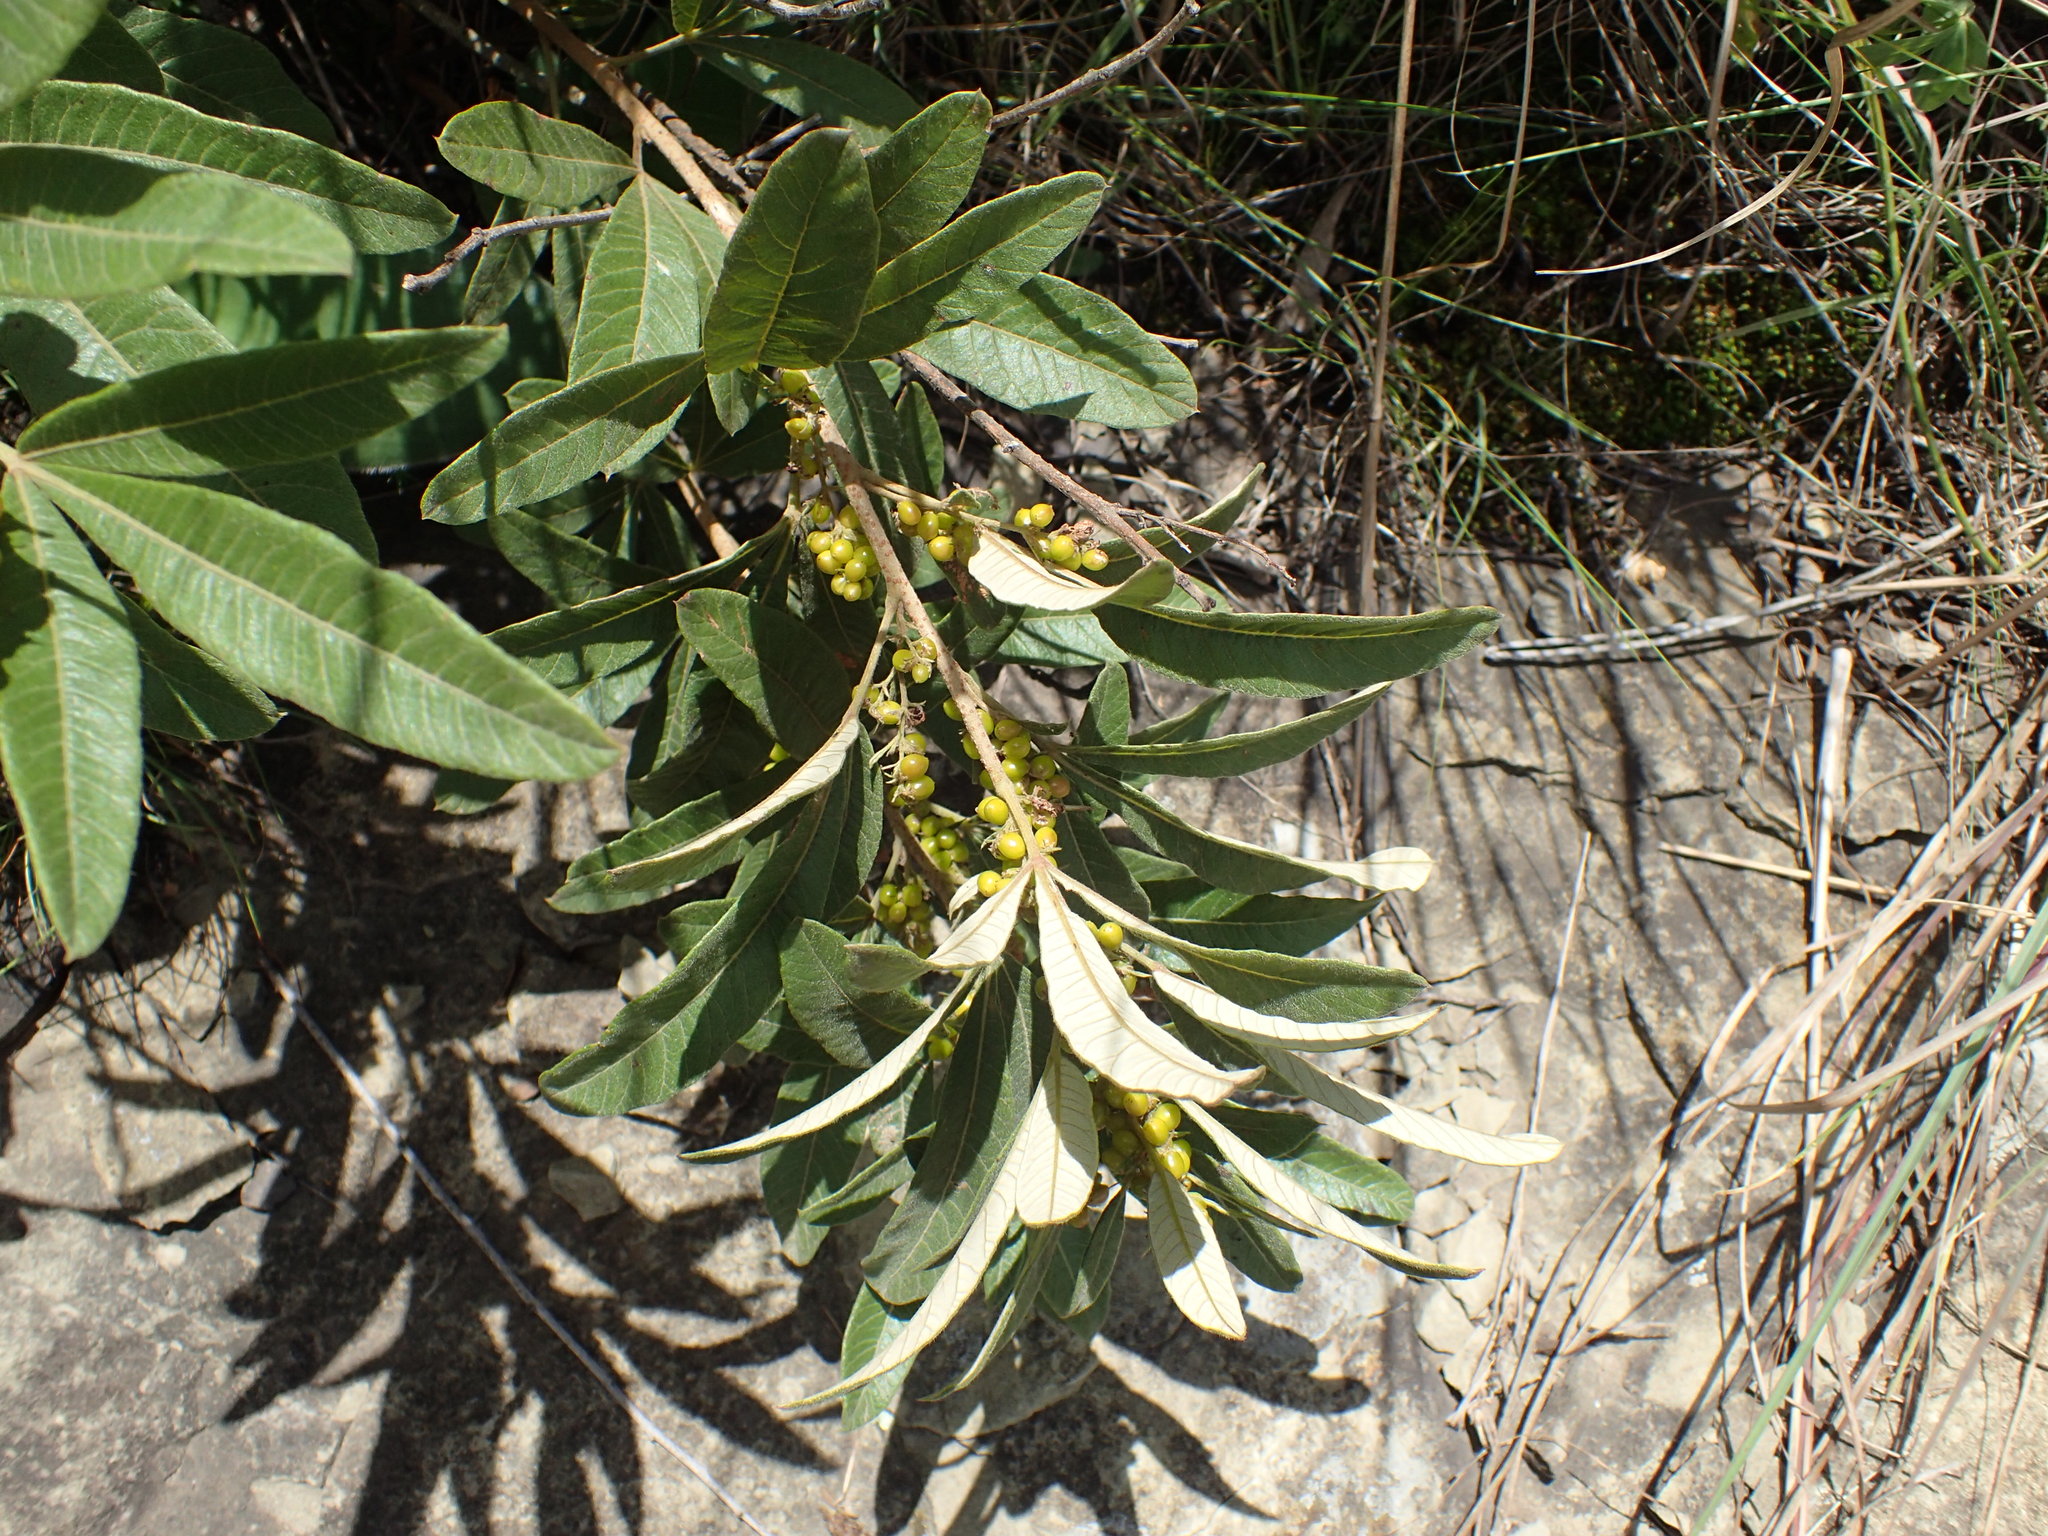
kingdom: Plantae
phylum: Tracheophyta
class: Magnoliopsida
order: Sapindales
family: Anacardiaceae
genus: Searsia
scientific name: Searsia discolor
